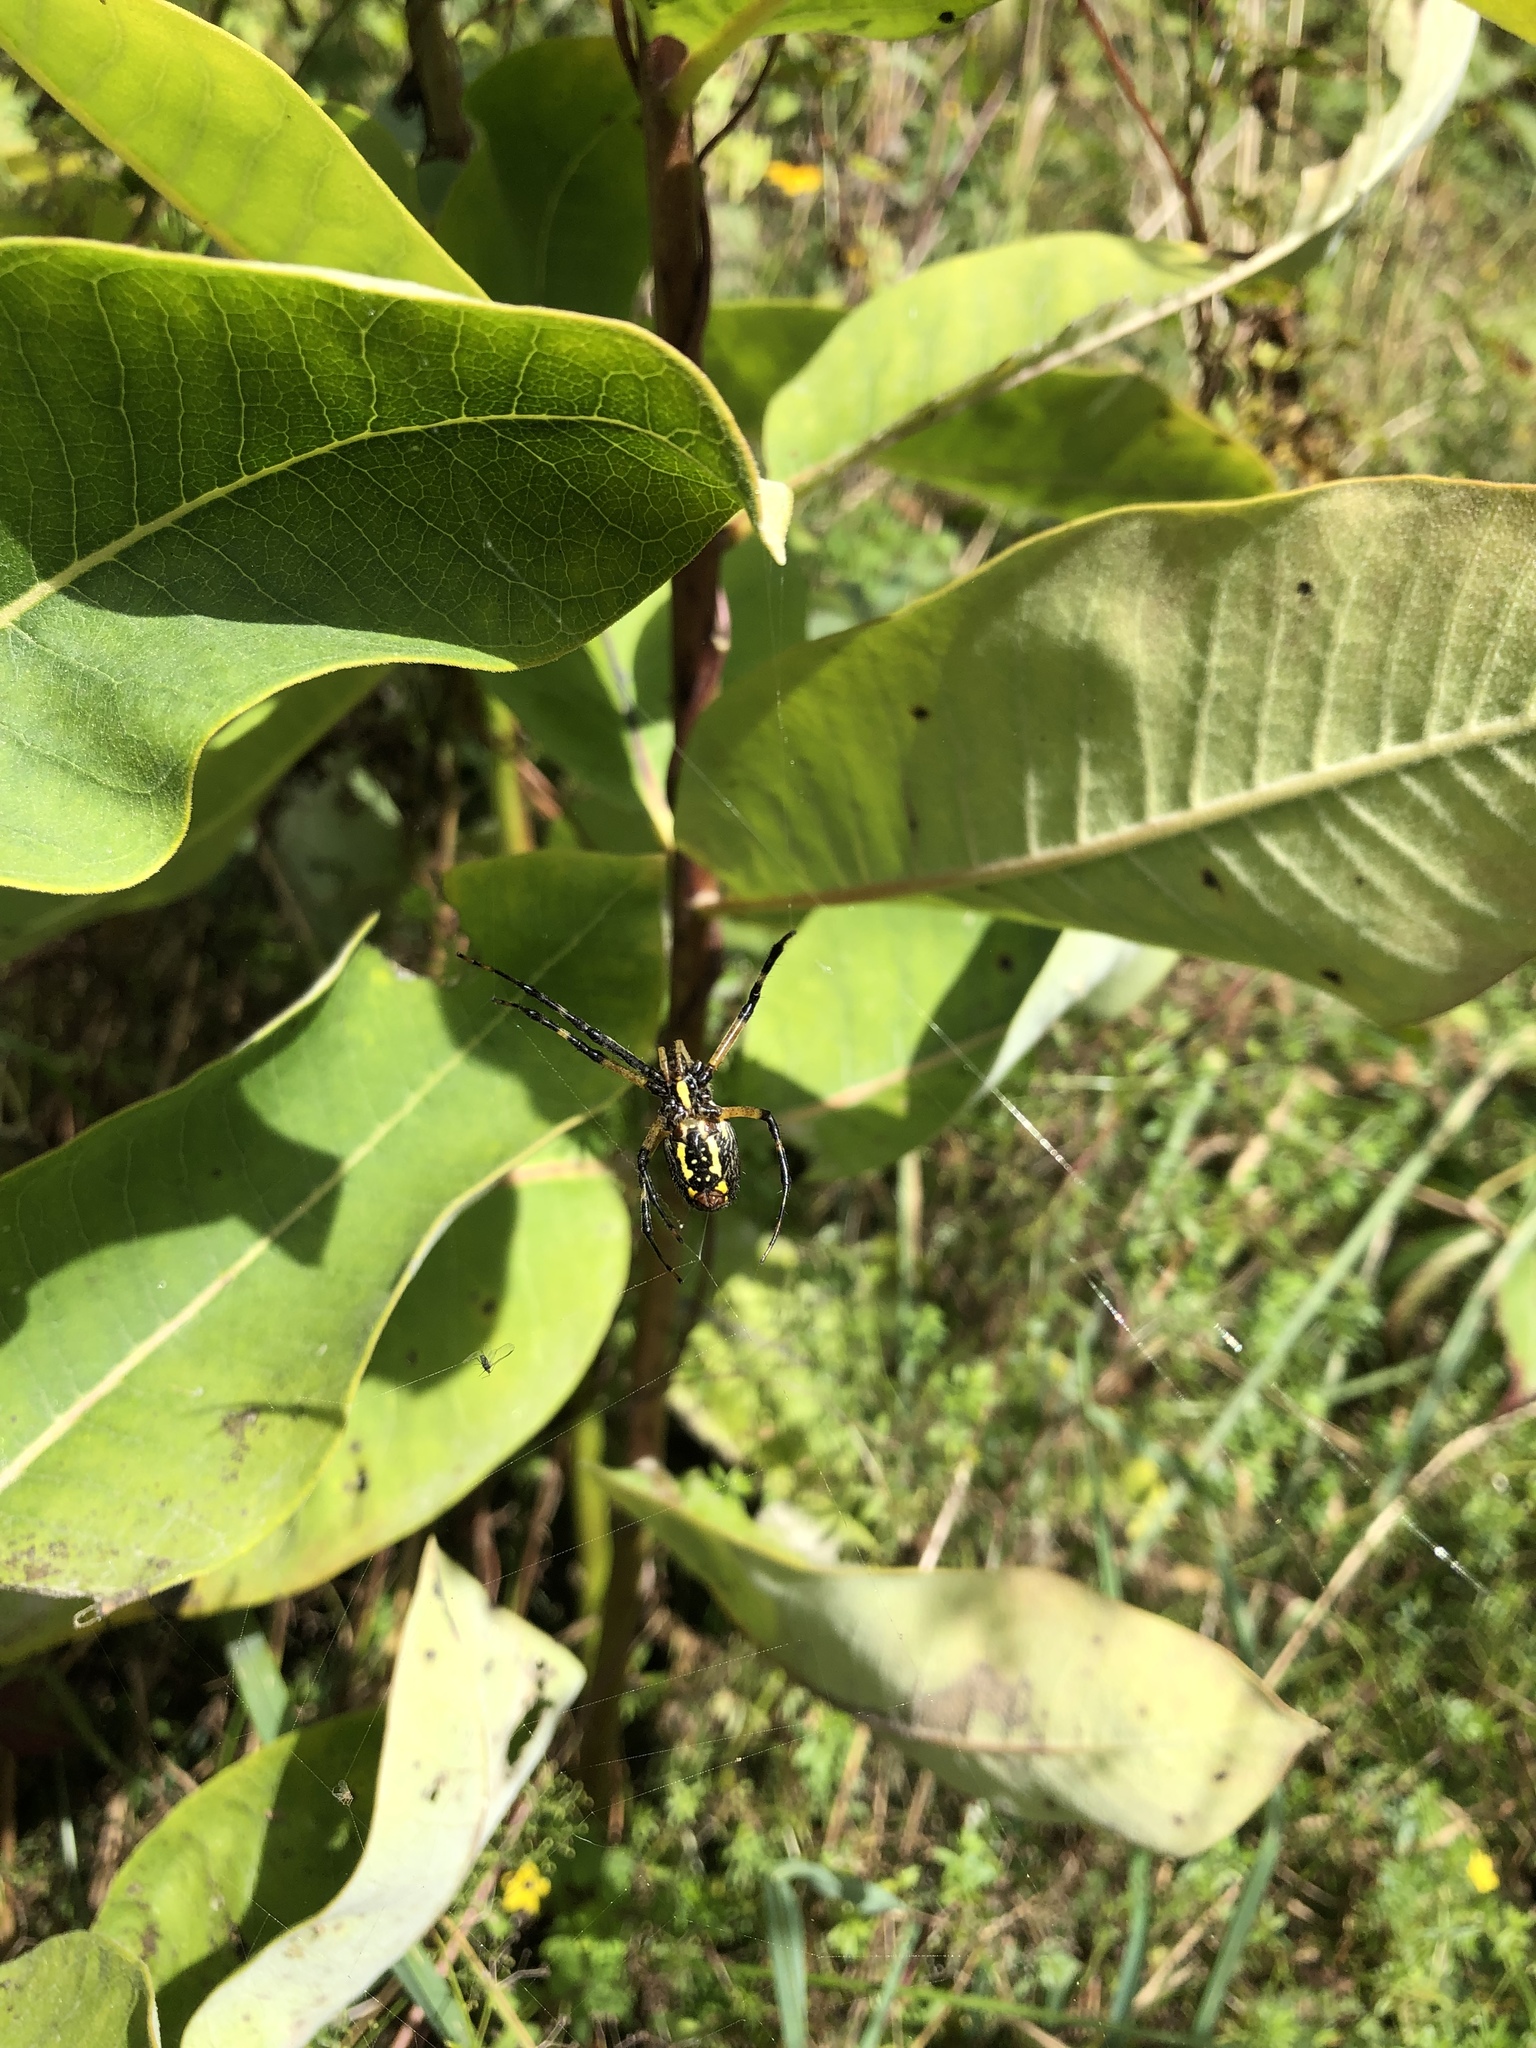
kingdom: Animalia
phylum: Arthropoda
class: Arachnida
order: Araneae
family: Araneidae
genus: Argiope
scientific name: Argiope aurantia
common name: Orb weavers
